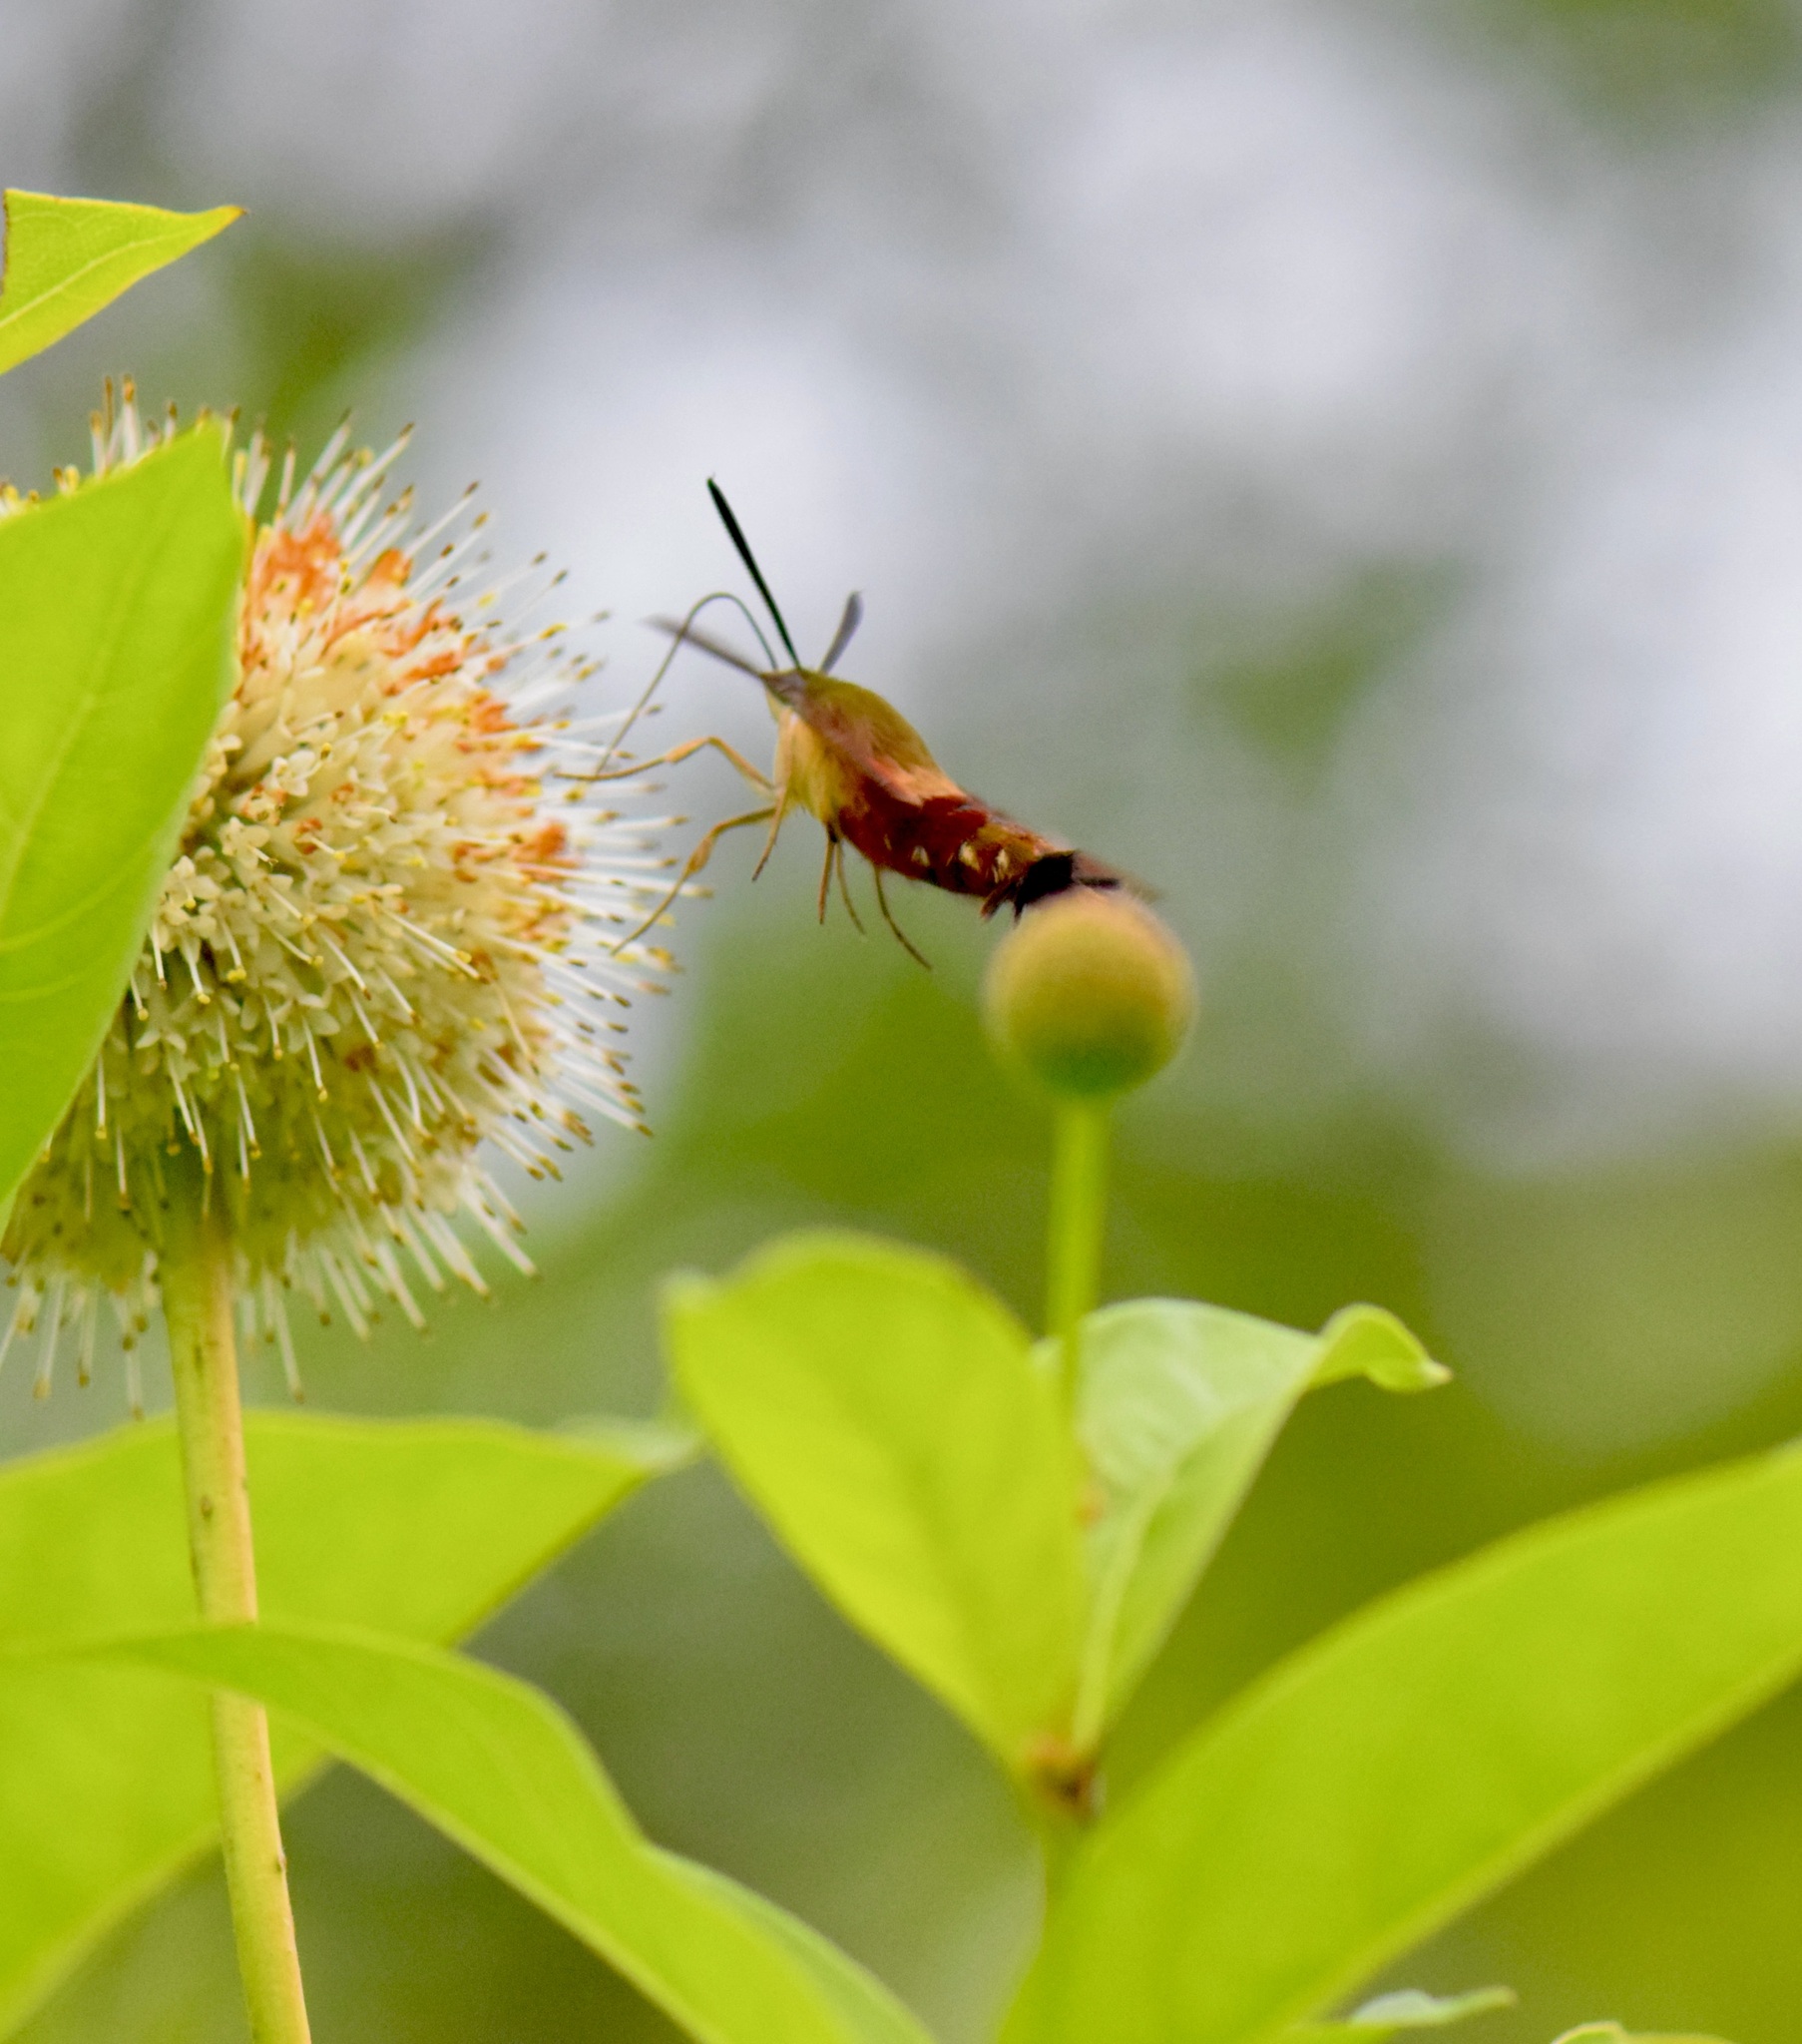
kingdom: Animalia
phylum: Arthropoda
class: Insecta
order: Lepidoptera
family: Sphingidae
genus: Hemaris
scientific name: Hemaris thysbe
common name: Common clear-wing
